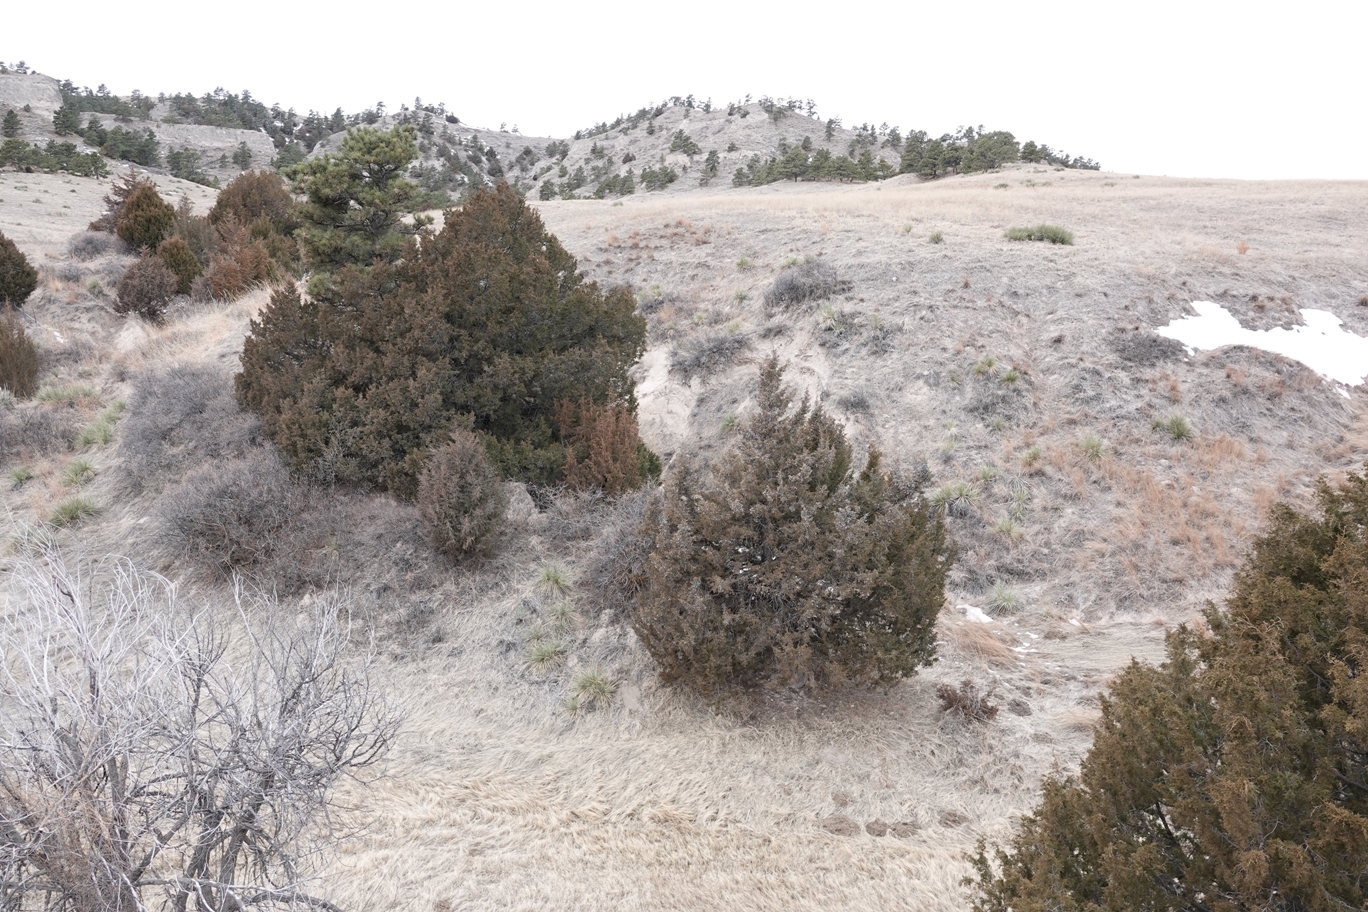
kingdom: Plantae
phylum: Tracheophyta
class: Pinopsida
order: Pinales
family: Cupressaceae
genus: Juniperus
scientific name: Juniperus scopulorum
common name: Rocky mountain juniper
